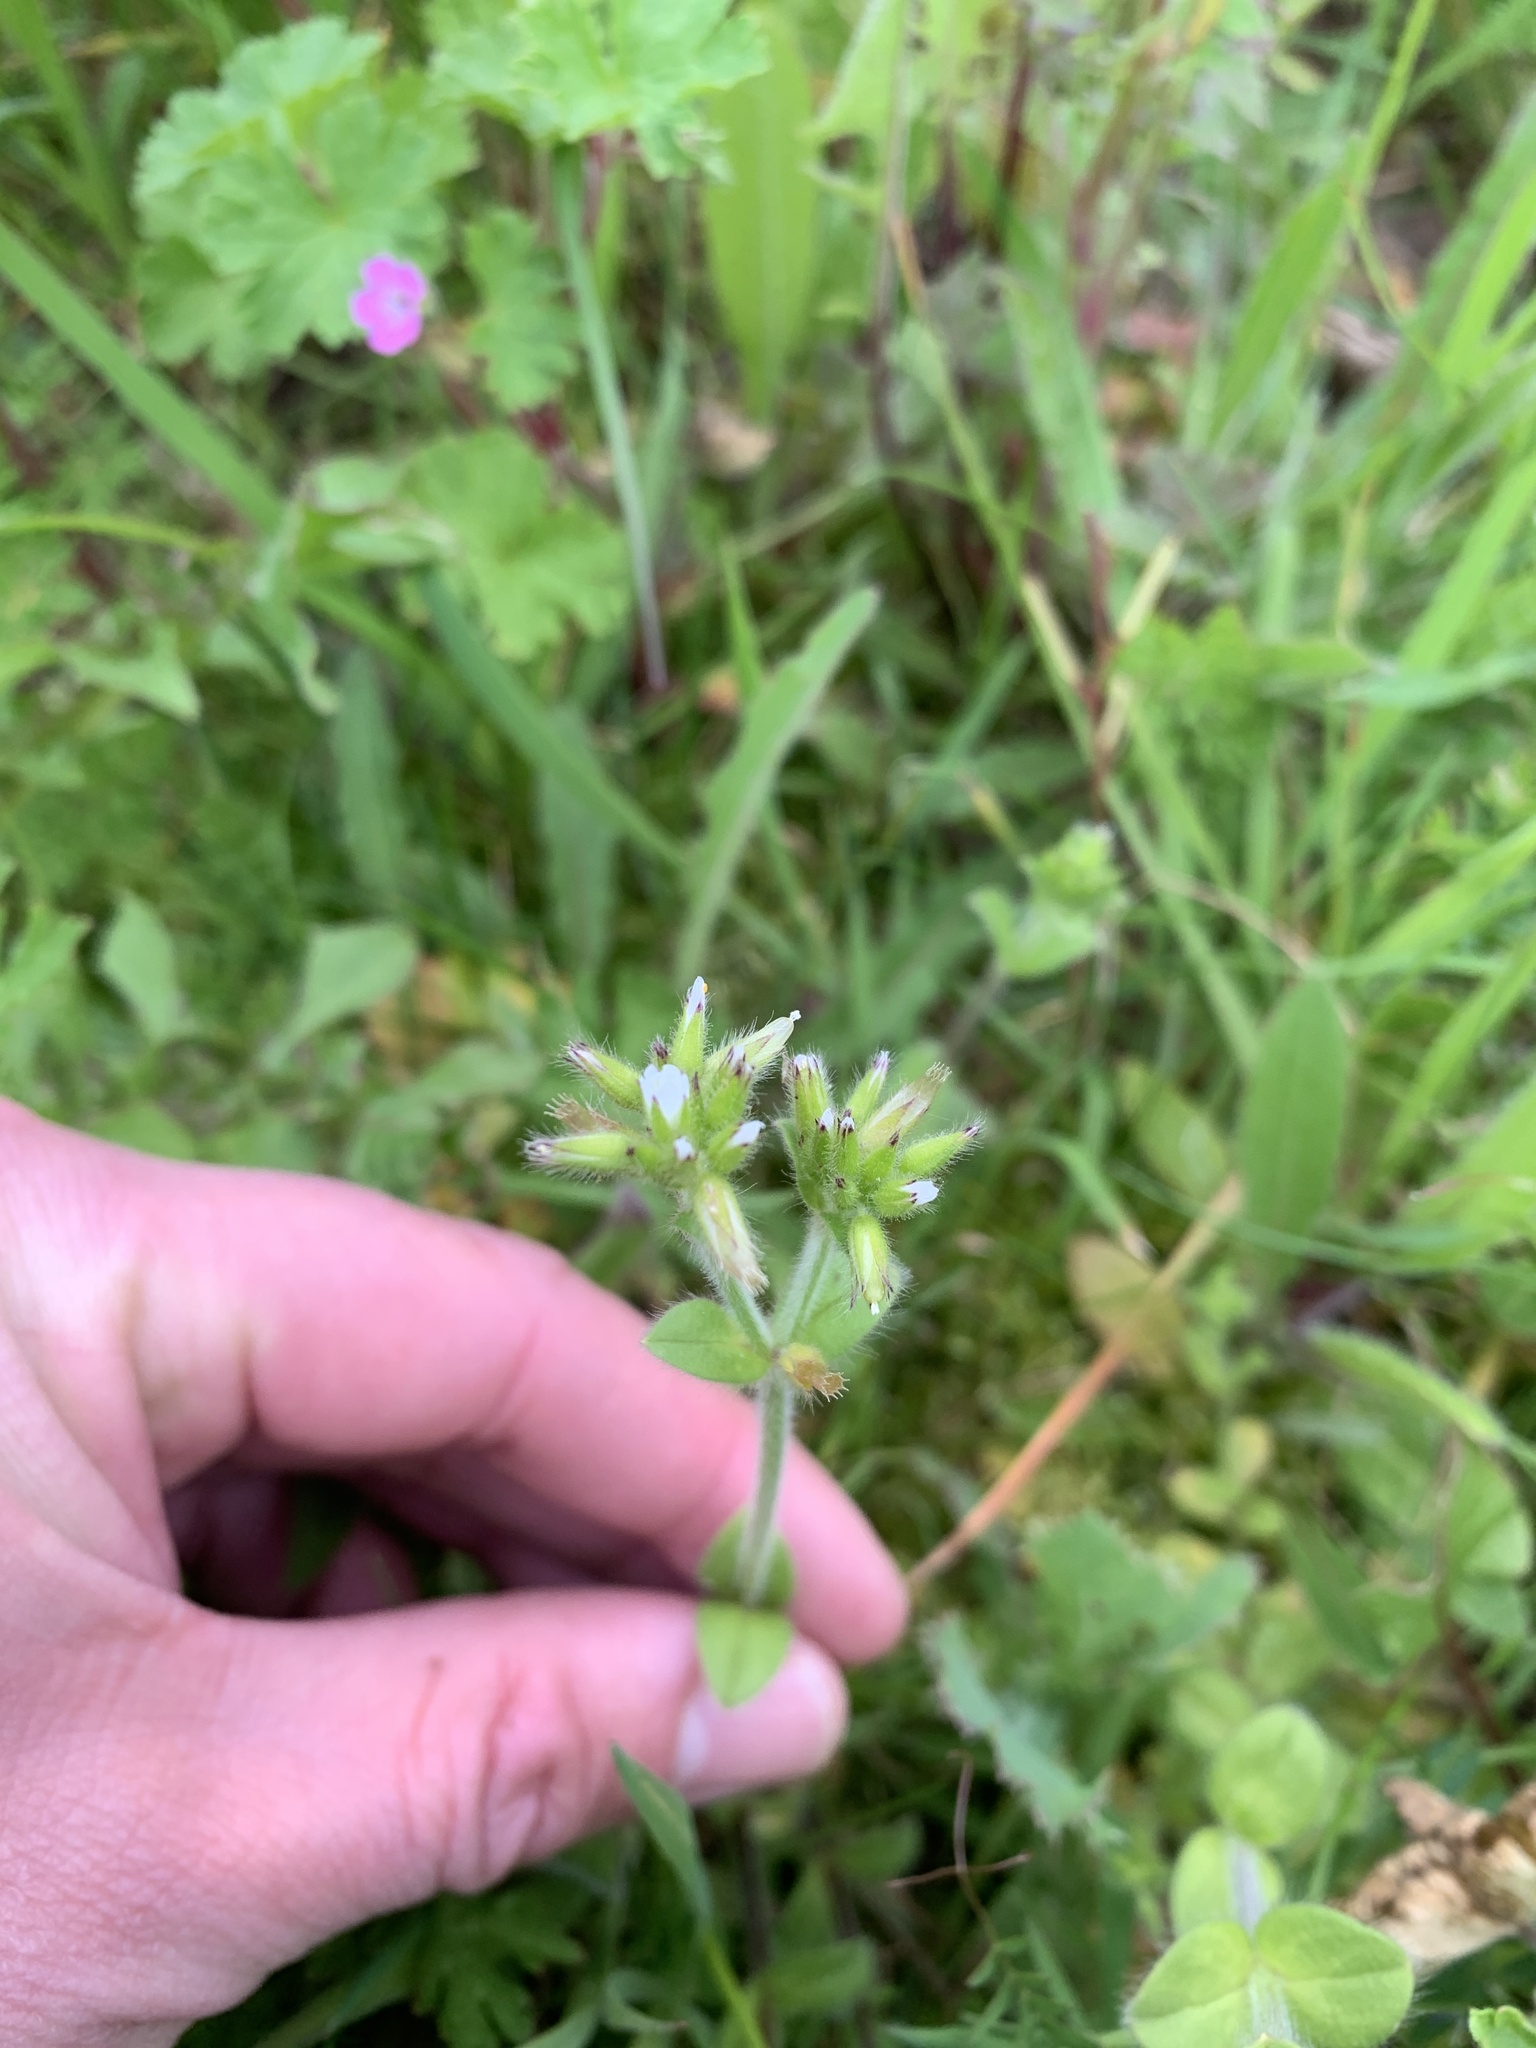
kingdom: Plantae
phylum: Tracheophyta
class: Magnoliopsida
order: Caryophyllales
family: Caryophyllaceae
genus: Cerastium
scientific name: Cerastium glomeratum
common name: Sticky chickweed
